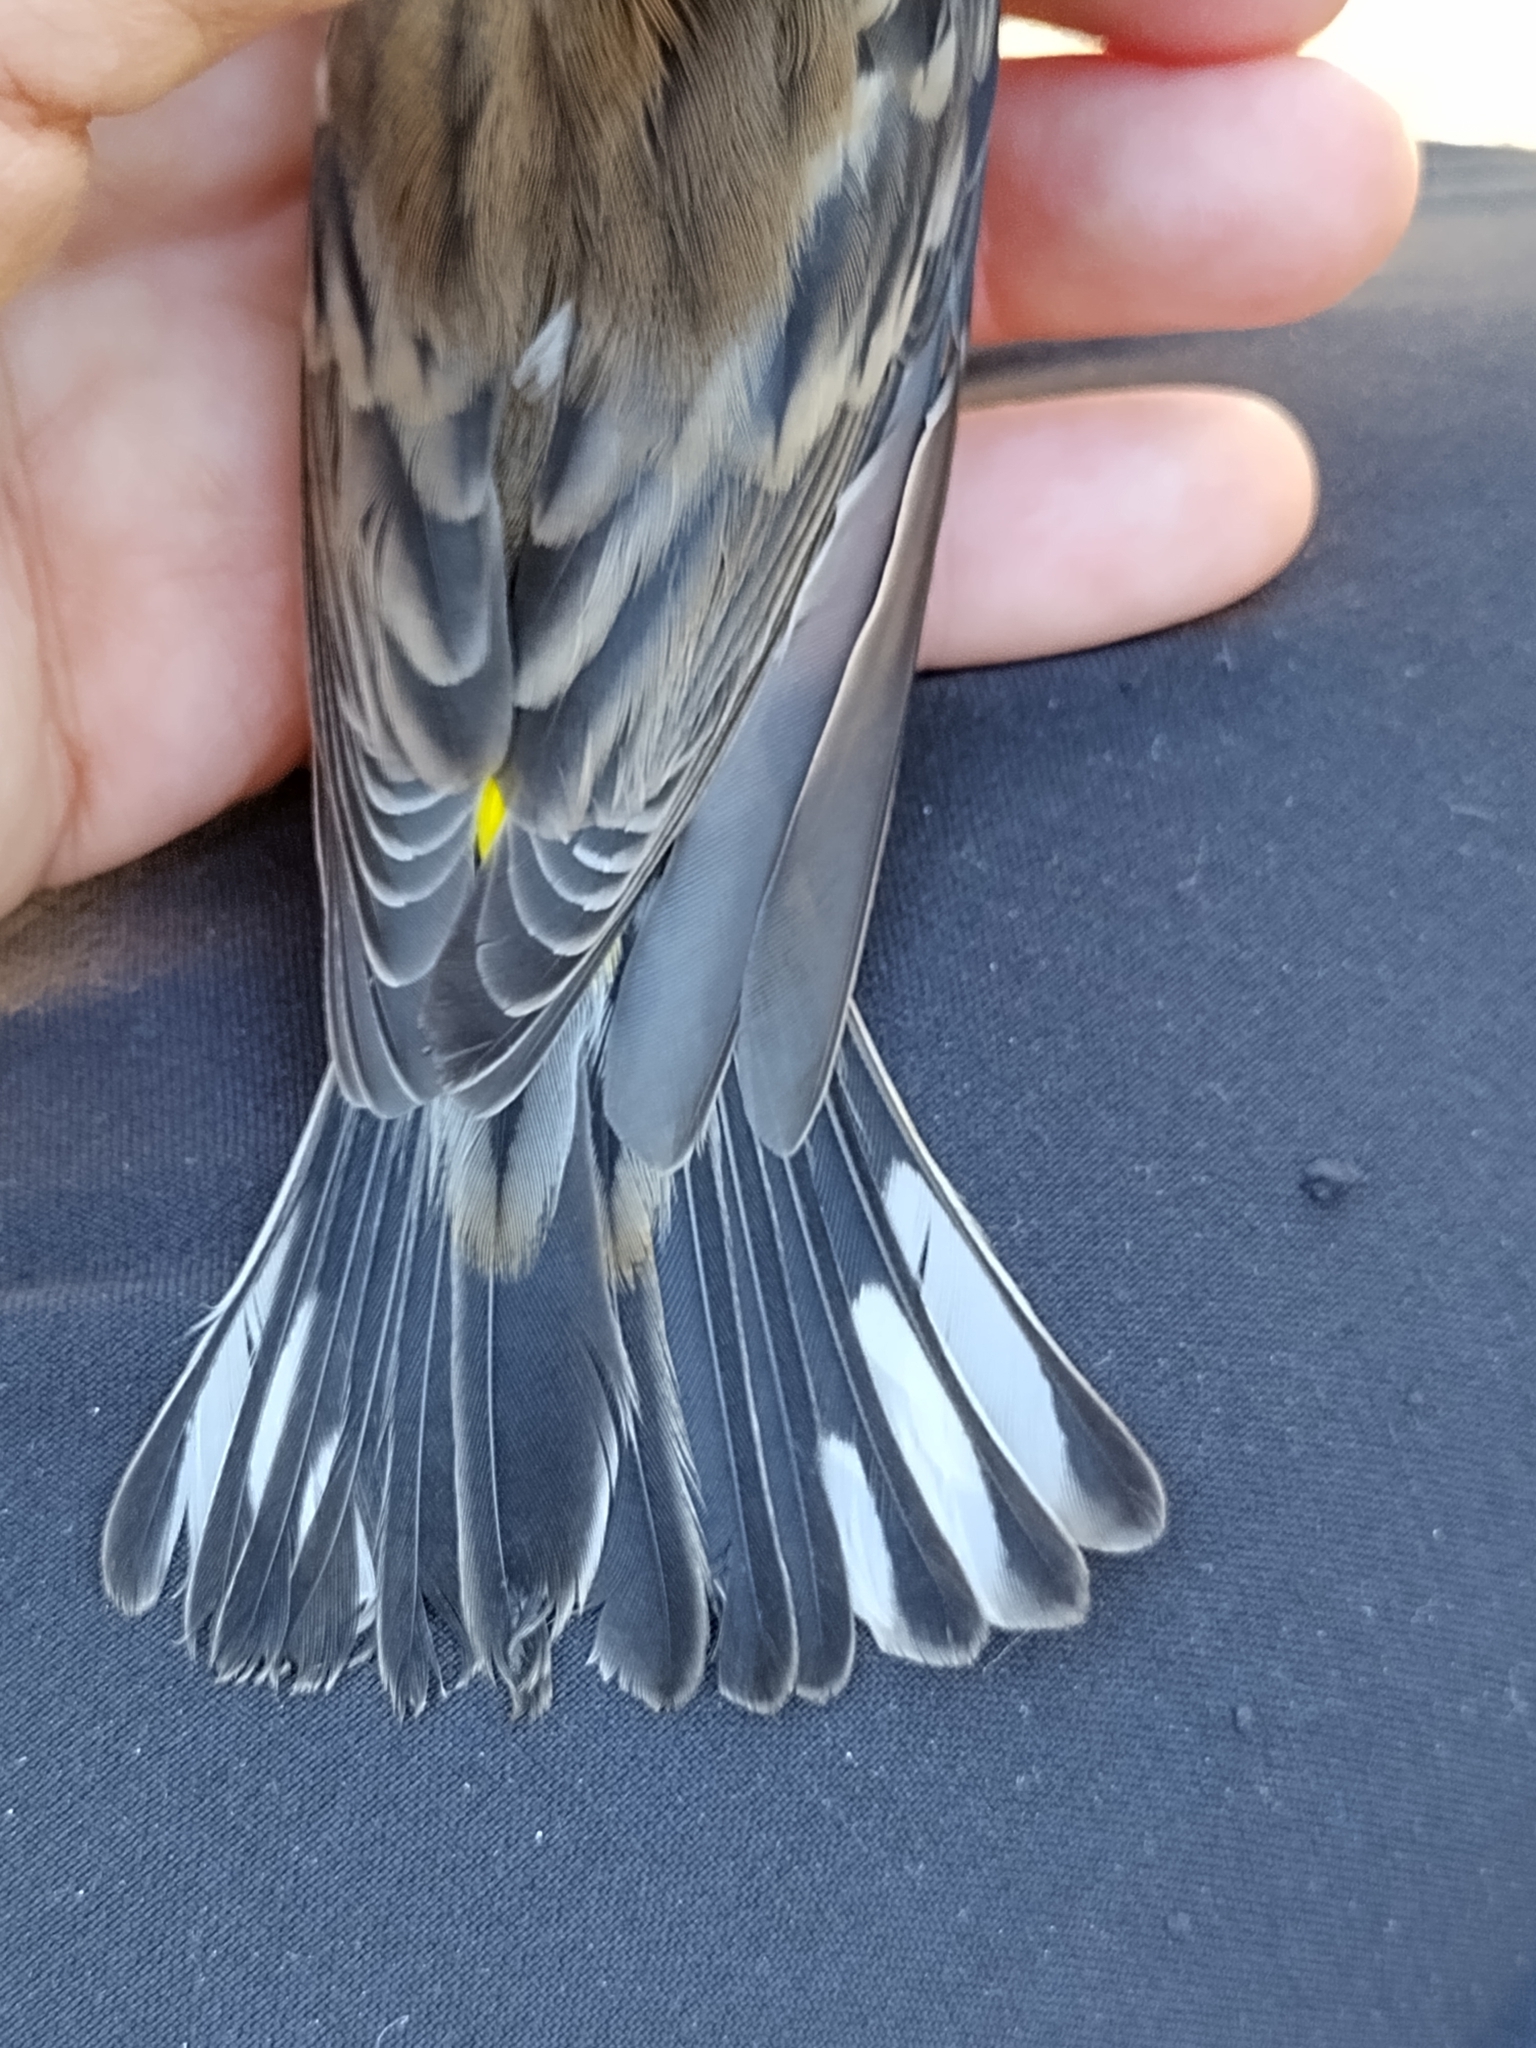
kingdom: Animalia
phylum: Chordata
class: Aves
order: Passeriformes
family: Parulidae
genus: Setophaga
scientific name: Setophaga coronata
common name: Myrtle warbler
